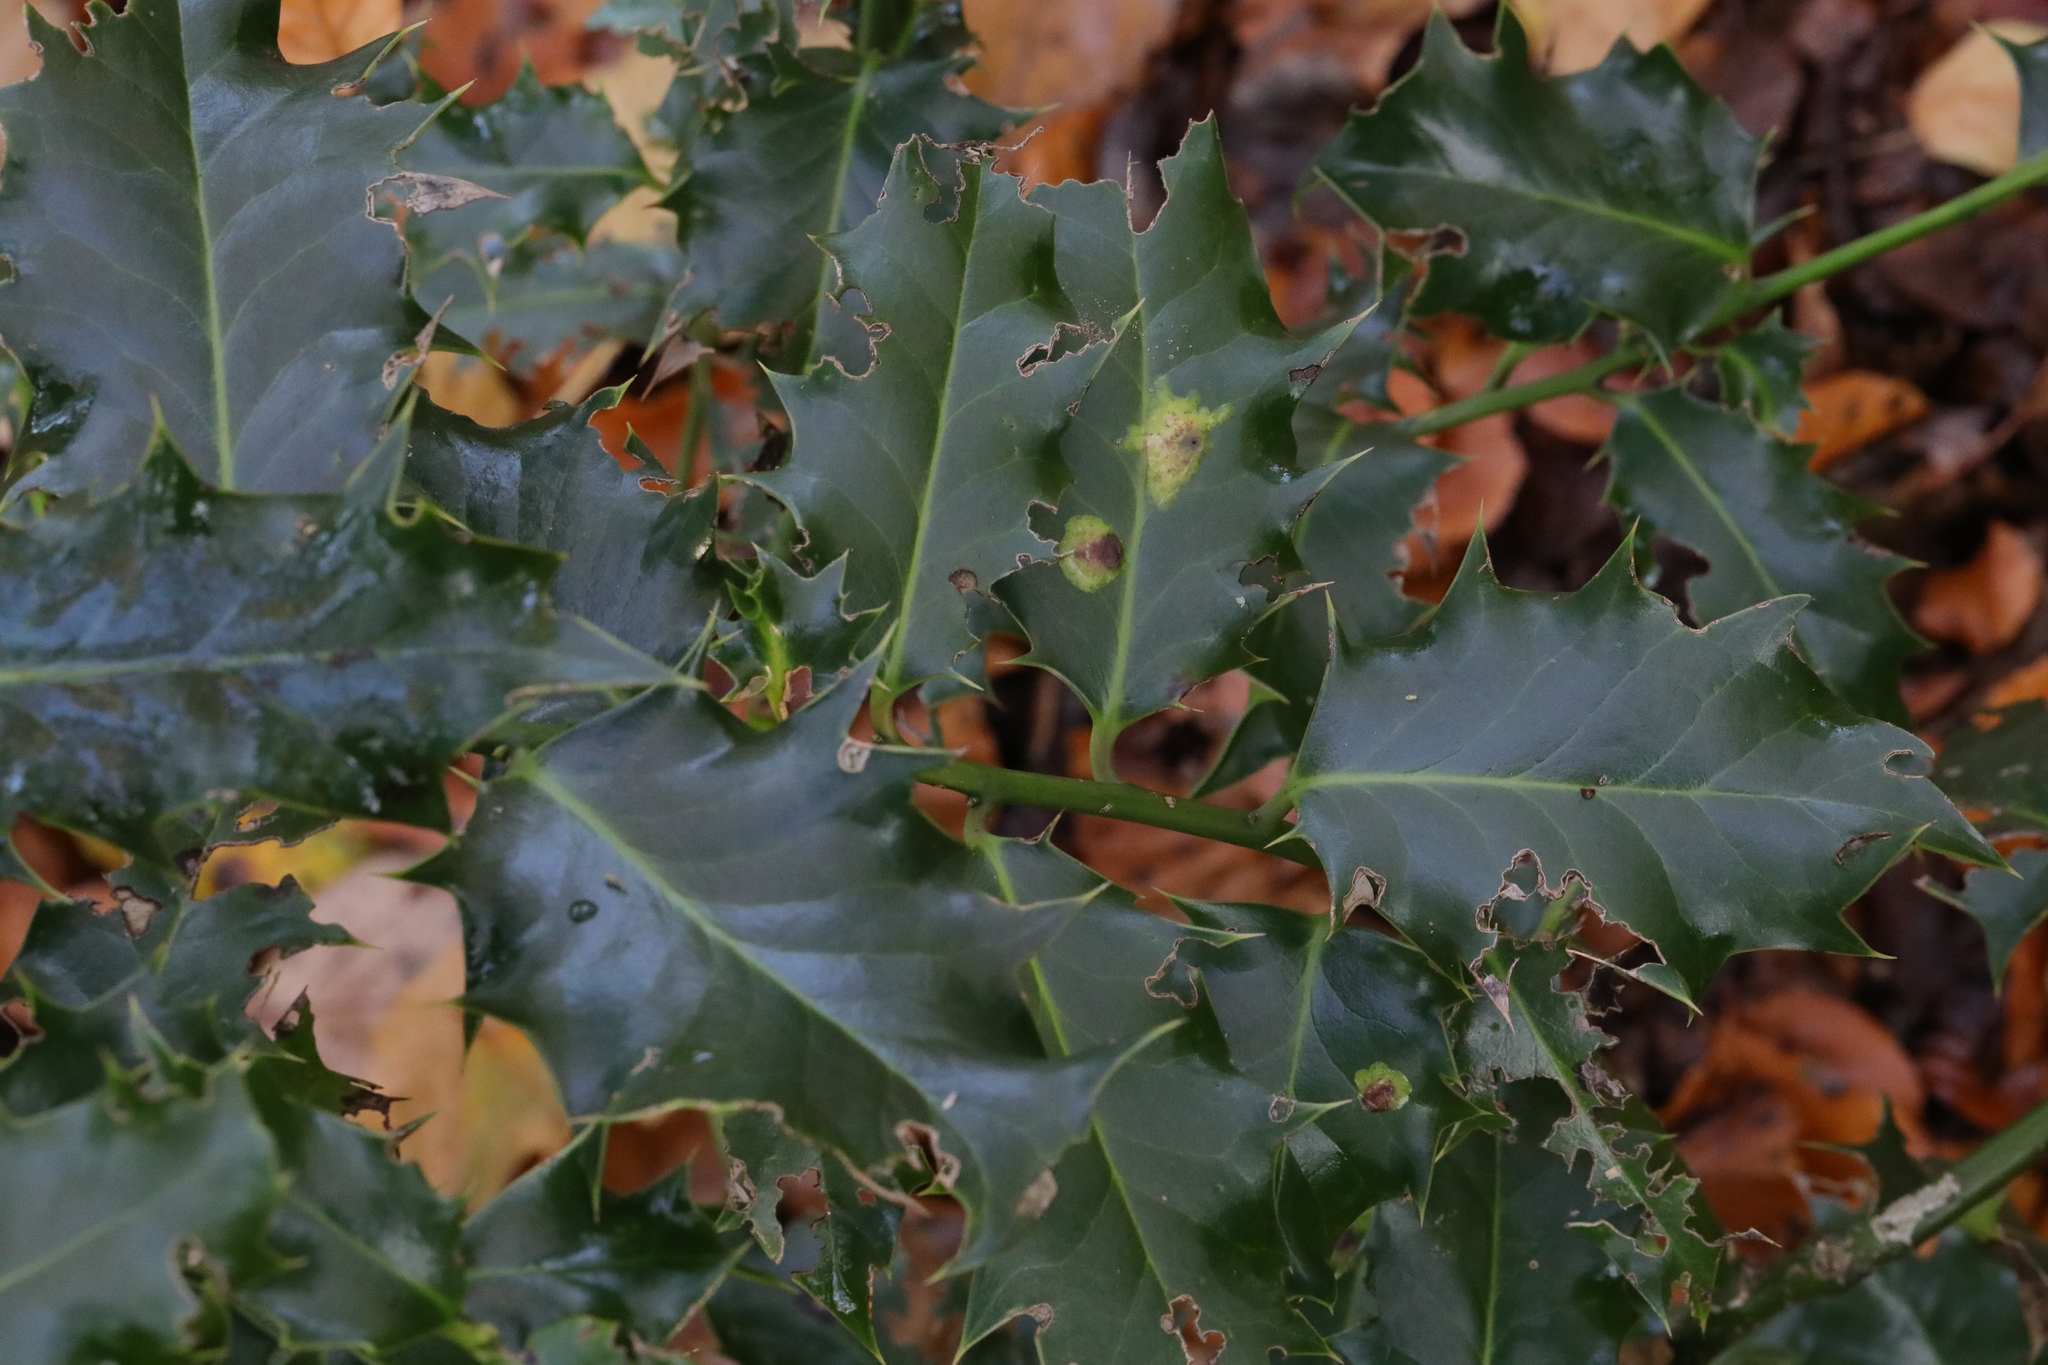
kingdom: Plantae
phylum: Tracheophyta
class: Magnoliopsida
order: Aquifoliales
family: Aquifoliaceae
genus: Ilex
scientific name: Ilex aquifolium
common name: English holly
